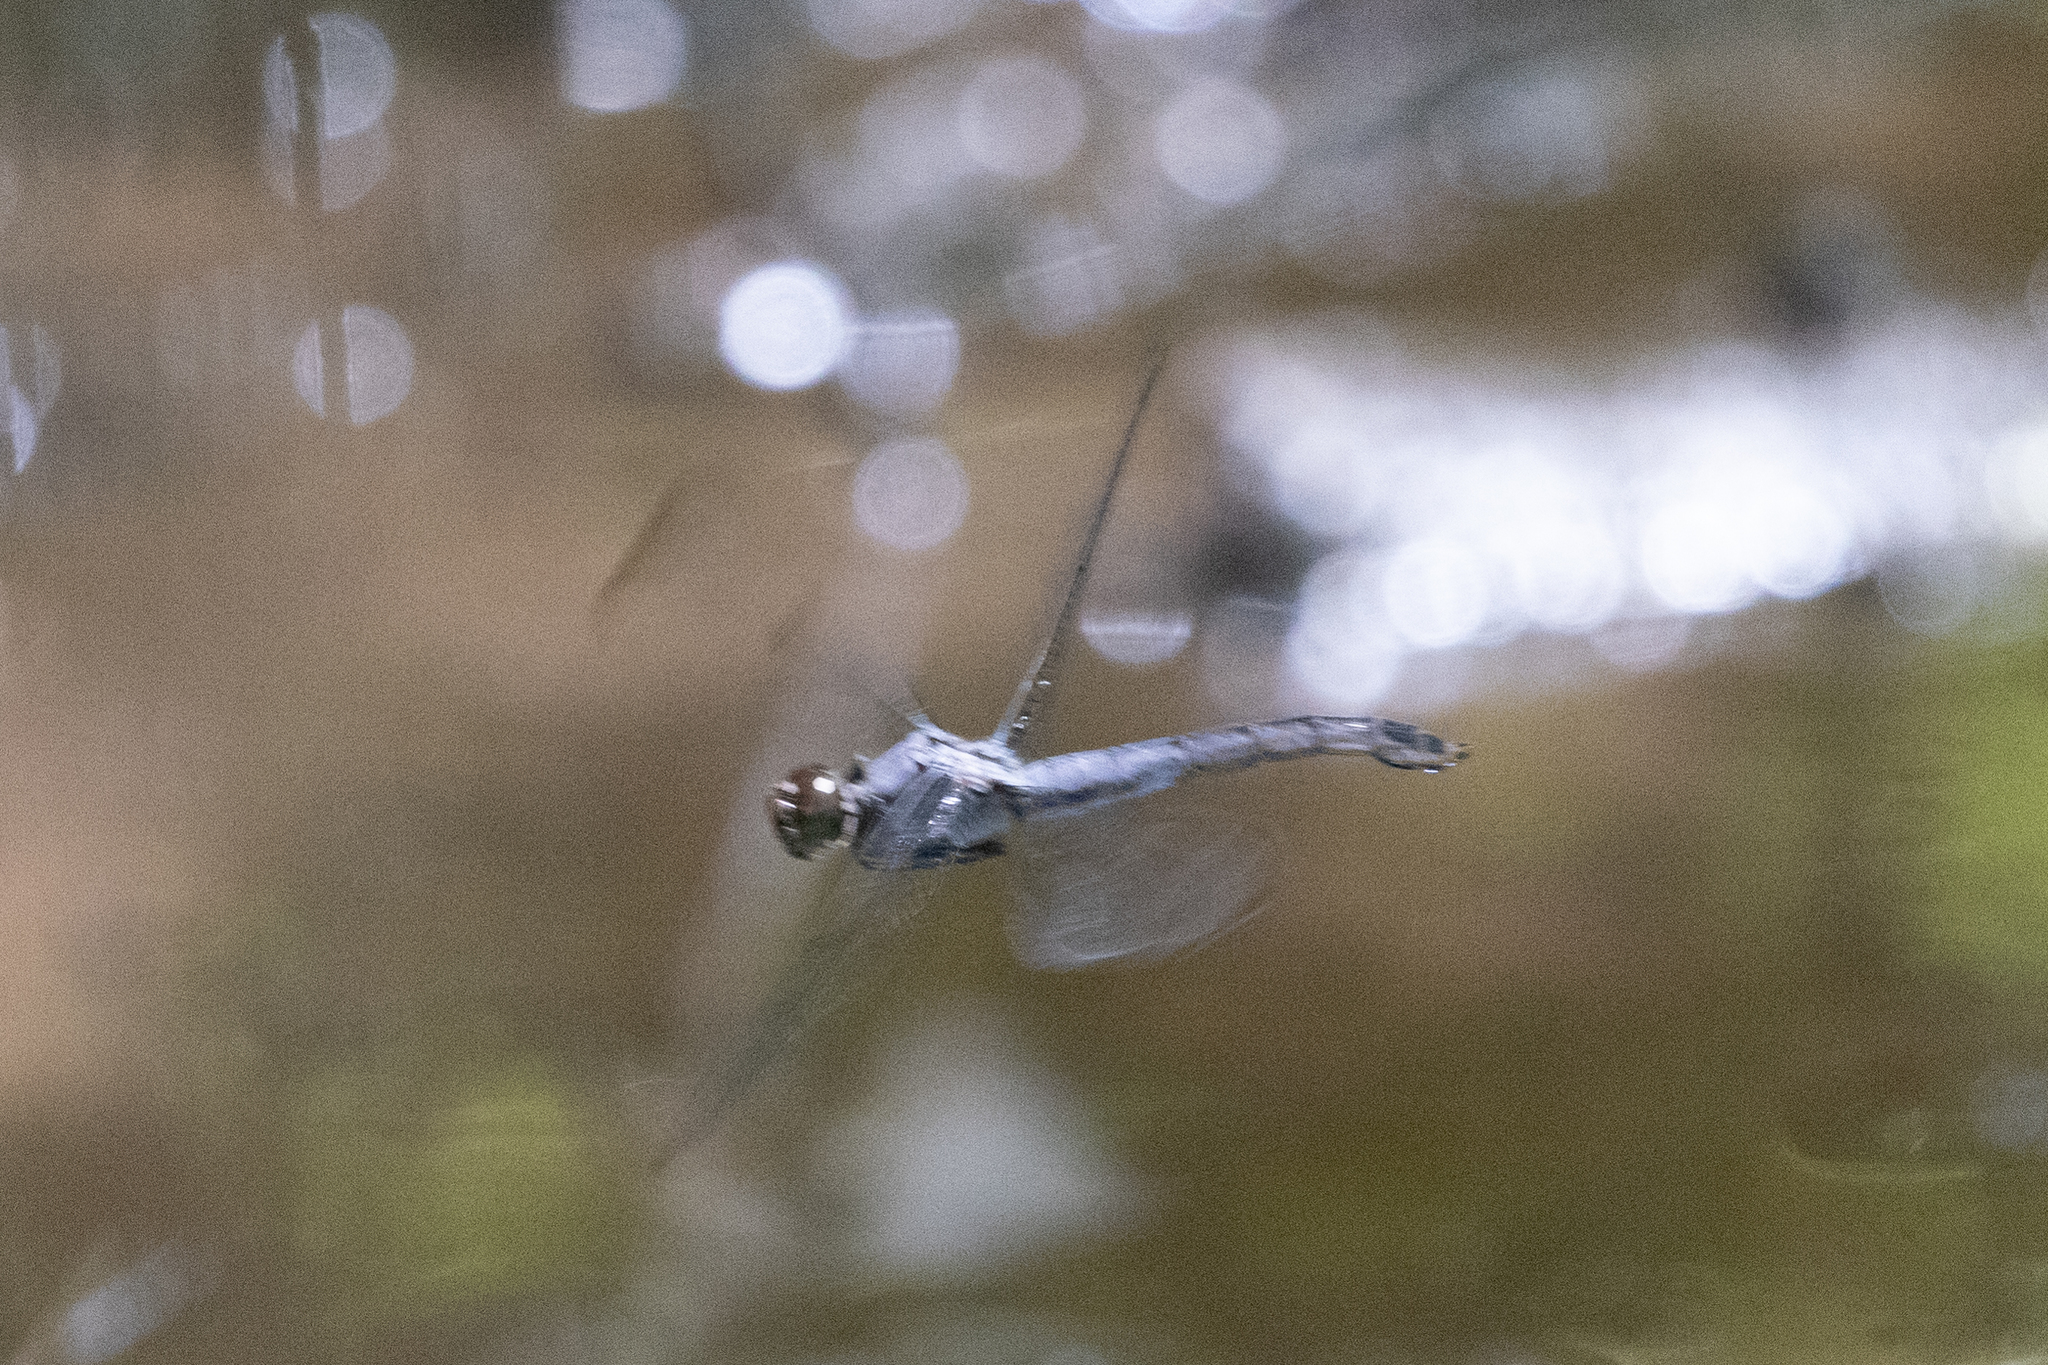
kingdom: Animalia
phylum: Arthropoda
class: Insecta
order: Odonata
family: Libellulidae
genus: Libellula
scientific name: Libellula incesta
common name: Slaty skimmer
